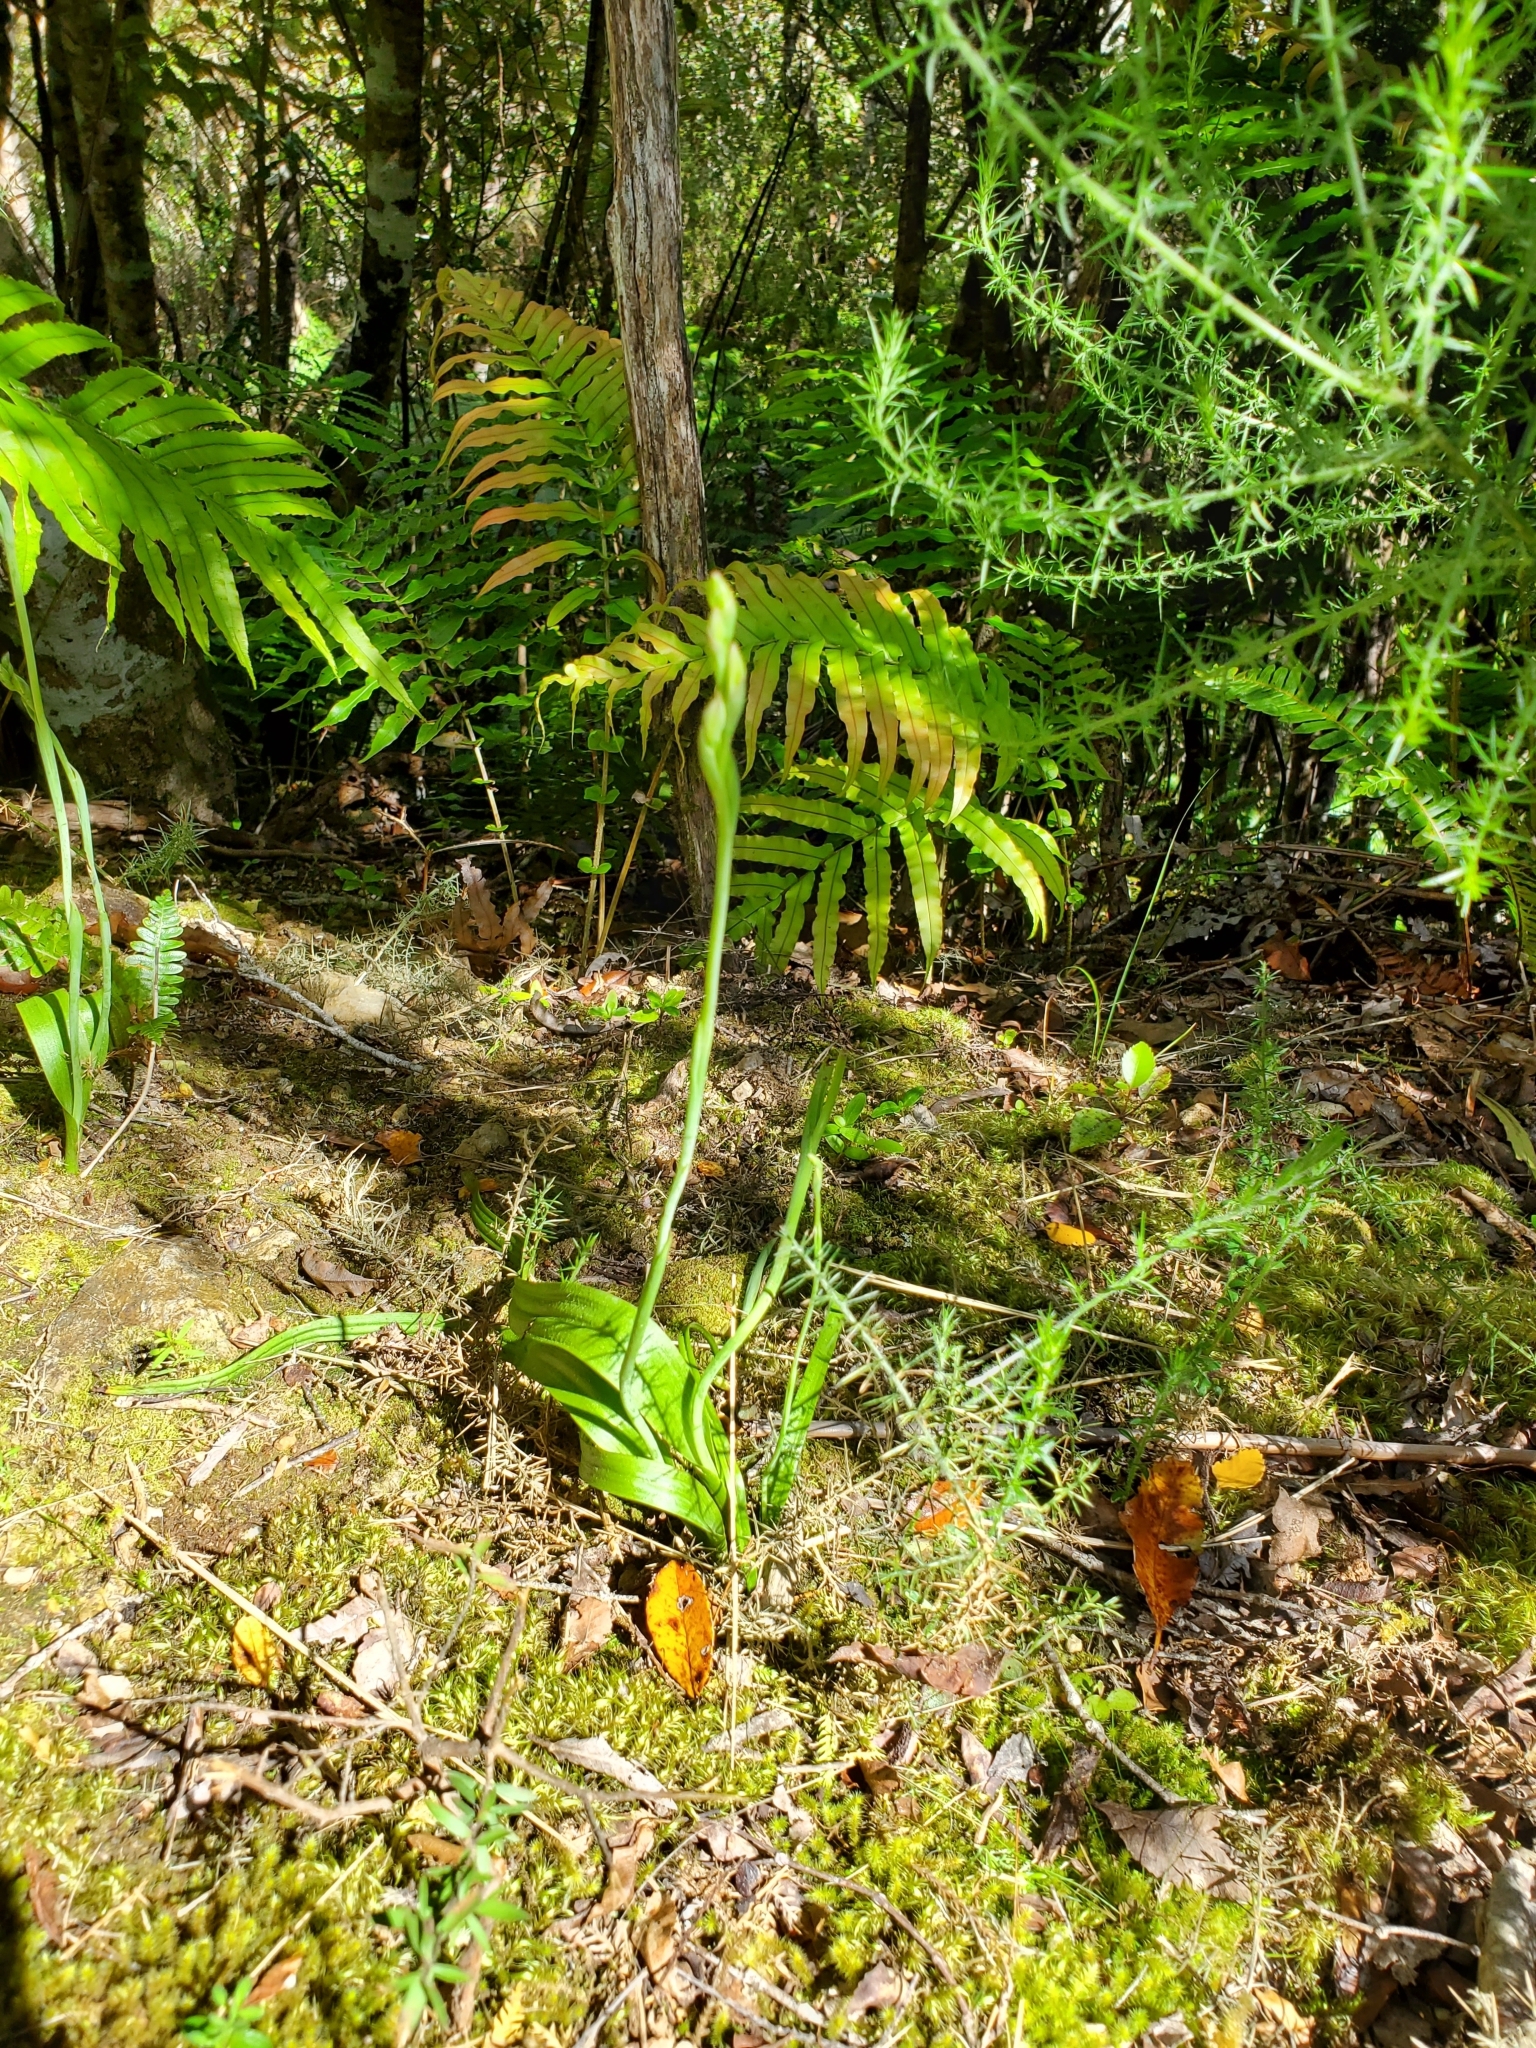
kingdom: Plantae
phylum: Tracheophyta
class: Liliopsida
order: Asparagales
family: Orchidaceae
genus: Thelymitra
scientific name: Thelymitra longifolia
